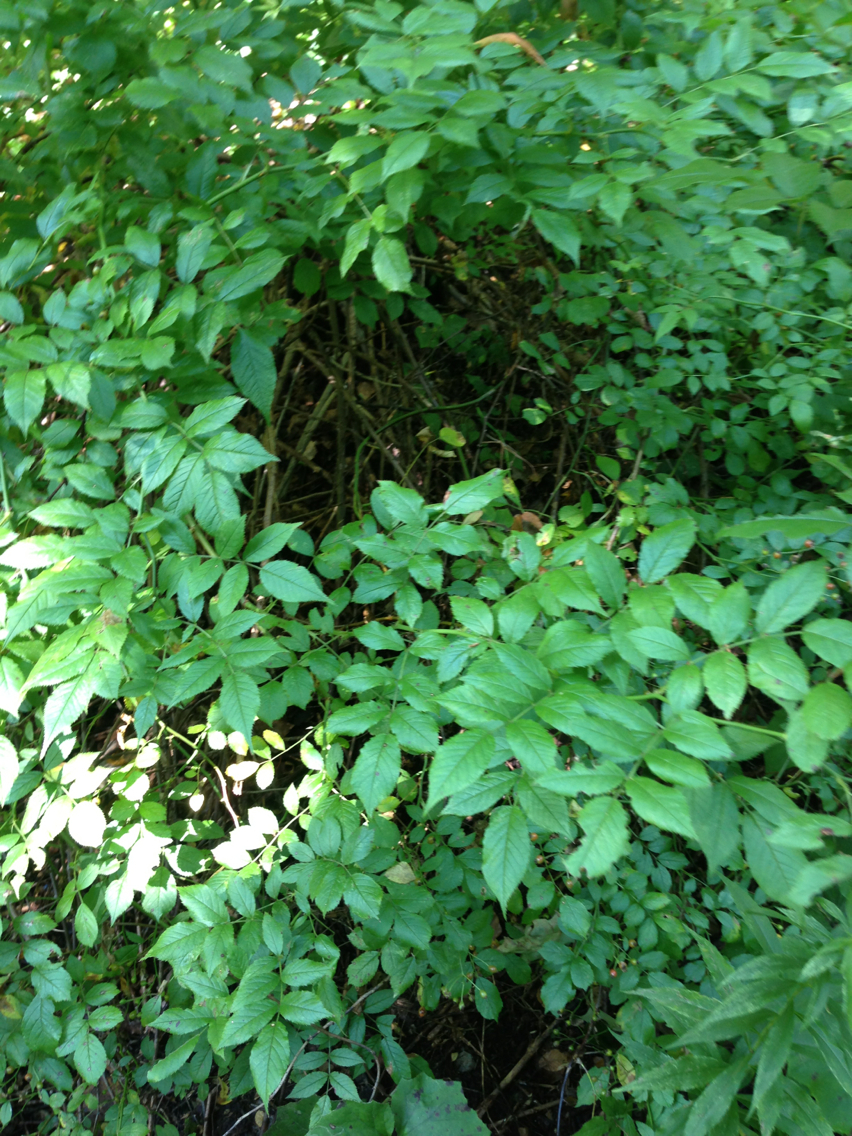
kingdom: Plantae
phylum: Tracheophyta
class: Magnoliopsida
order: Rosales
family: Rosaceae
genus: Rosa
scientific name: Rosa multiflora
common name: Multiflora rose
